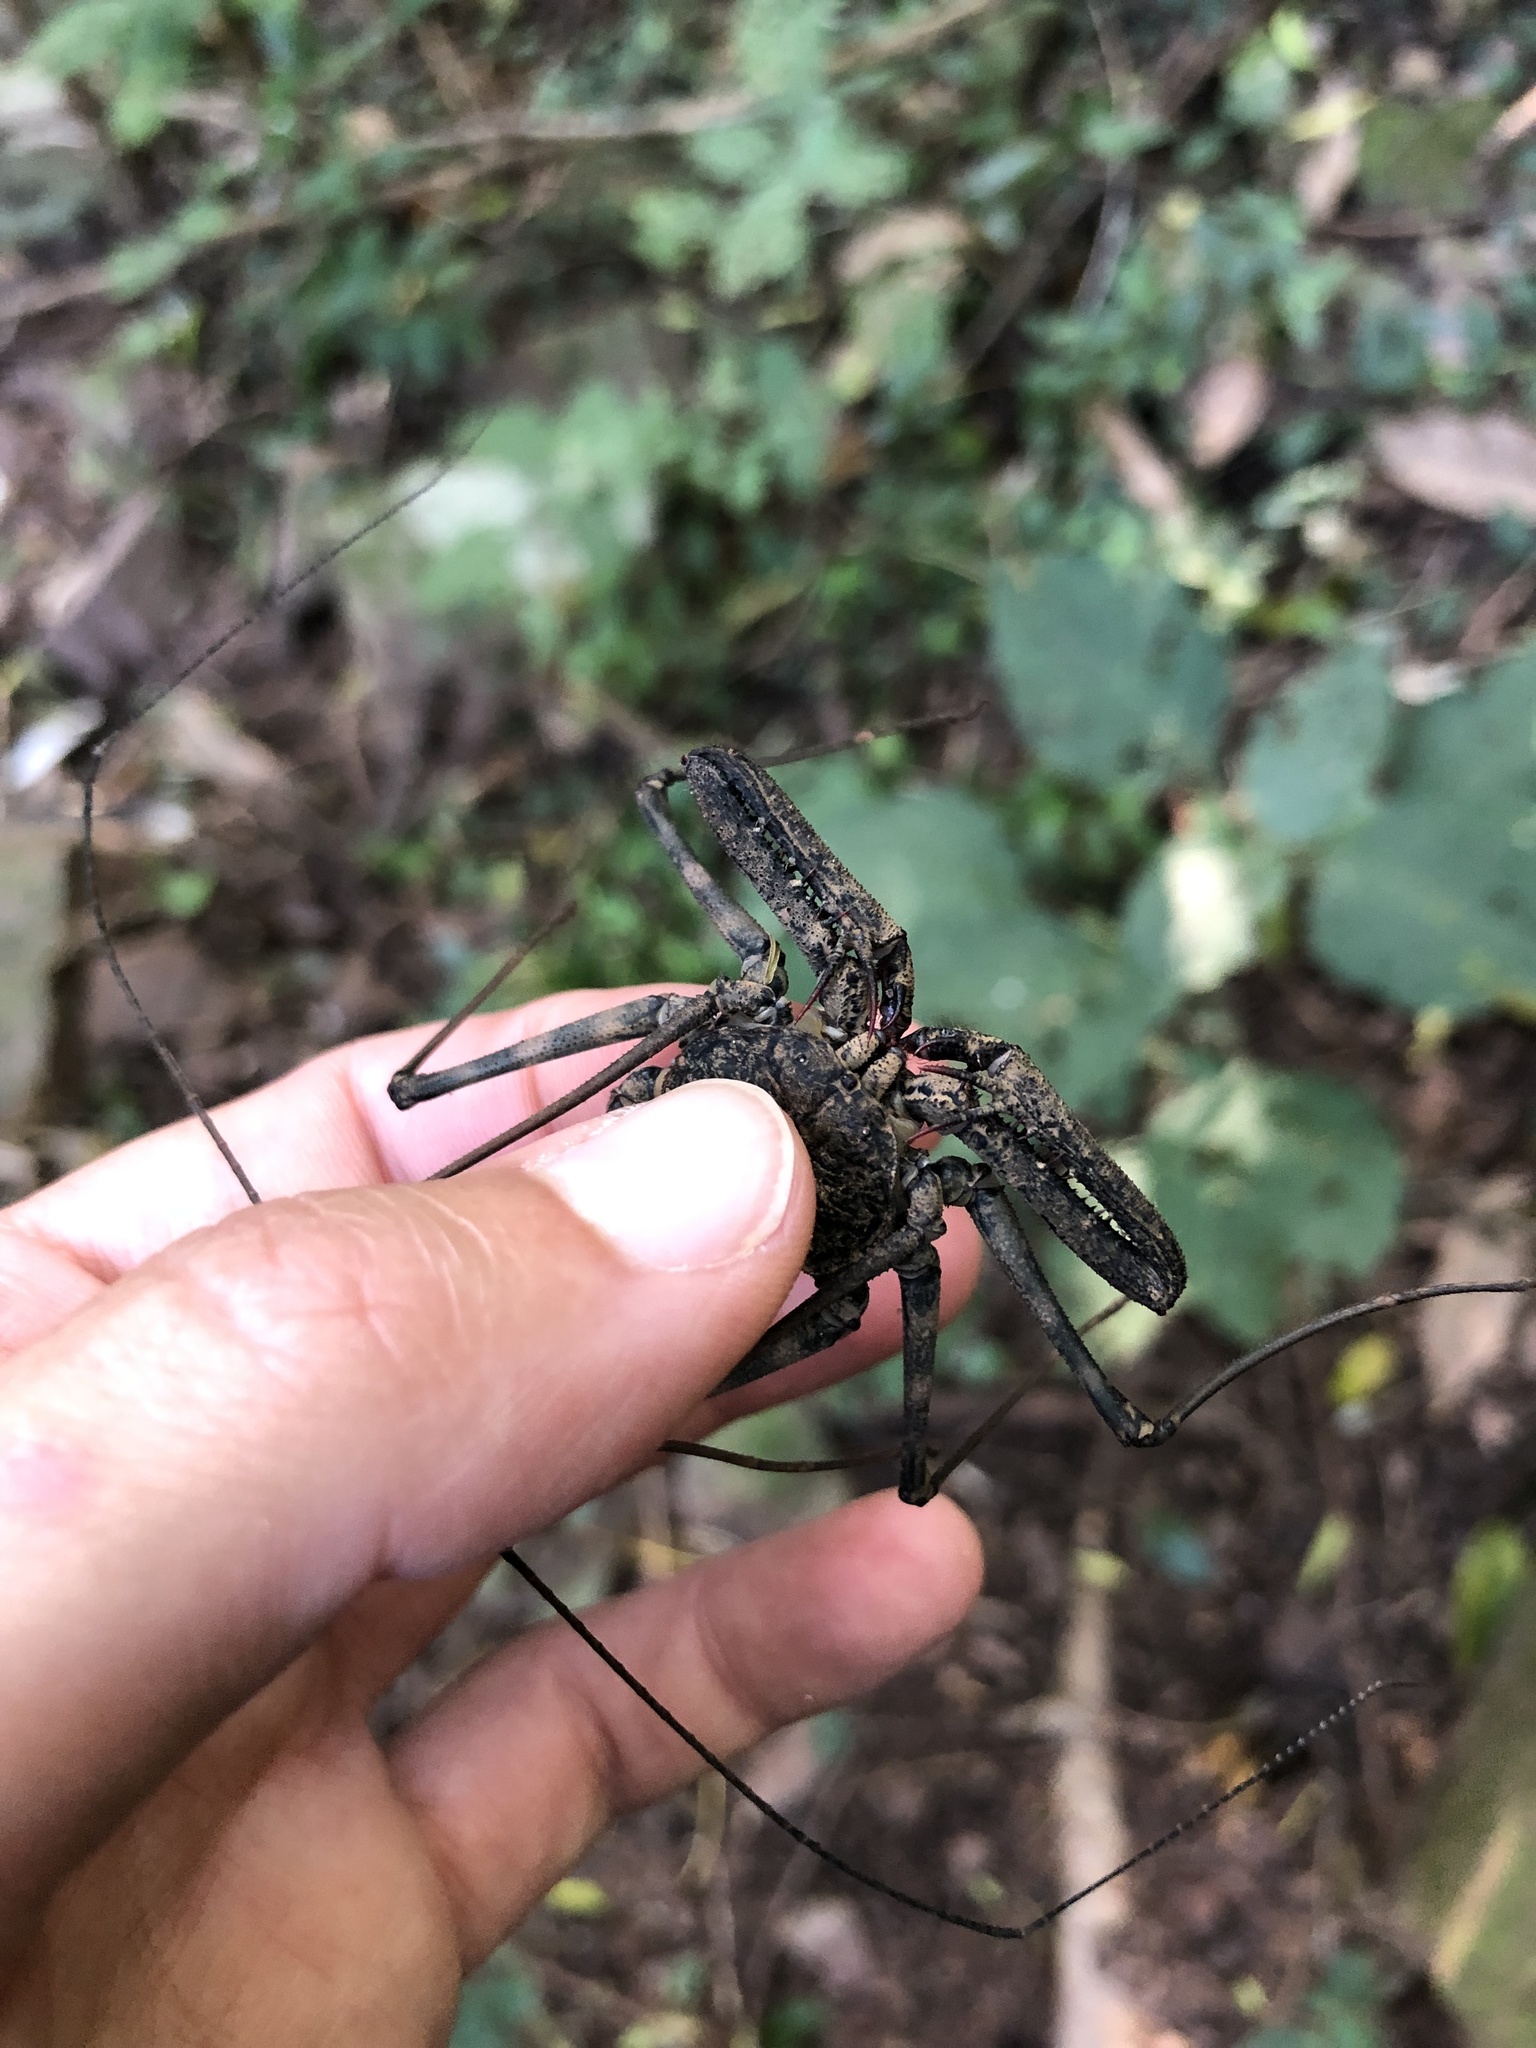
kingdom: Animalia
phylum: Arthropoda
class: Arachnida
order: Amblypygi
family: Phrynichidae
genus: Damon
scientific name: Damon annulatipes
